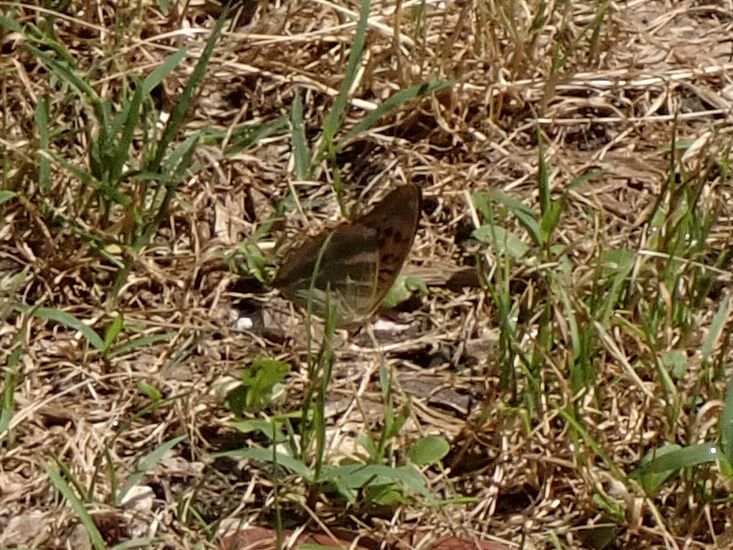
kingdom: Animalia
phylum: Arthropoda
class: Insecta
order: Lepidoptera
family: Nymphalidae
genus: Argynnis
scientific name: Argynnis paphia
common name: Silver-washed fritillary
